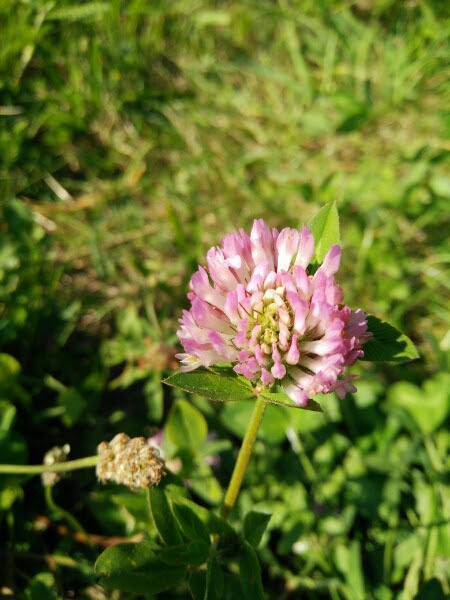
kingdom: Plantae
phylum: Tracheophyta
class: Magnoliopsida
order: Fabales
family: Fabaceae
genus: Trifolium
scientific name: Trifolium pratense
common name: Red clover
